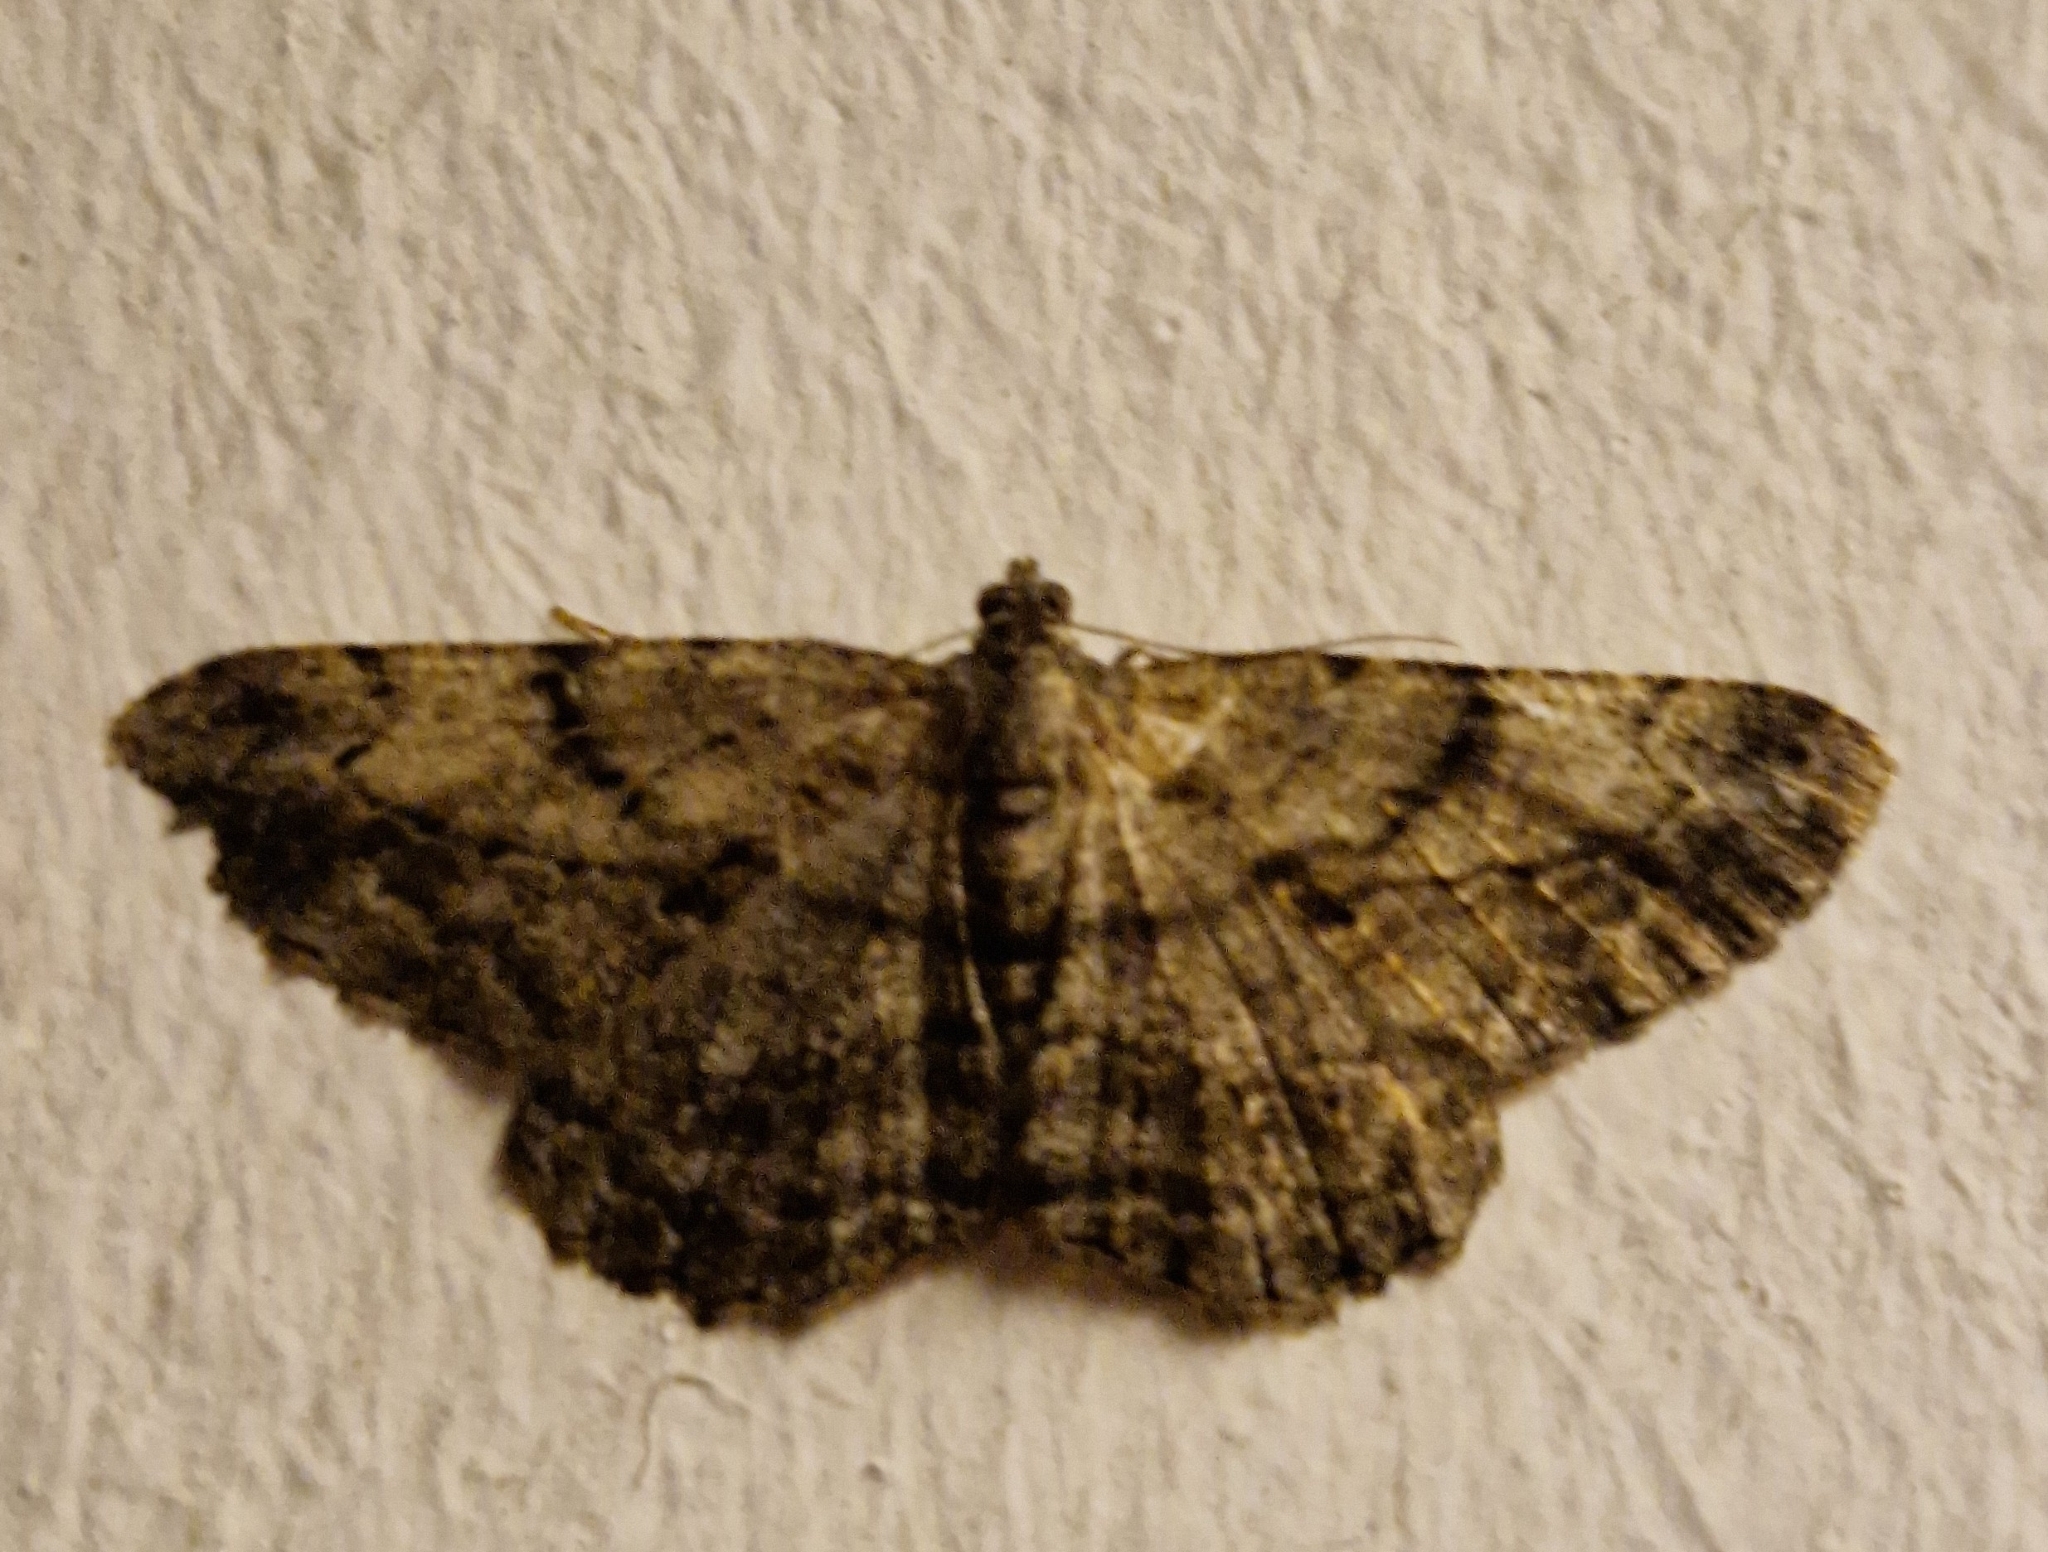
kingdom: Animalia
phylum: Arthropoda
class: Insecta
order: Lepidoptera
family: Geometridae
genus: Peribatodes
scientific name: Peribatodes rhomboidaria
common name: Willow beauty
